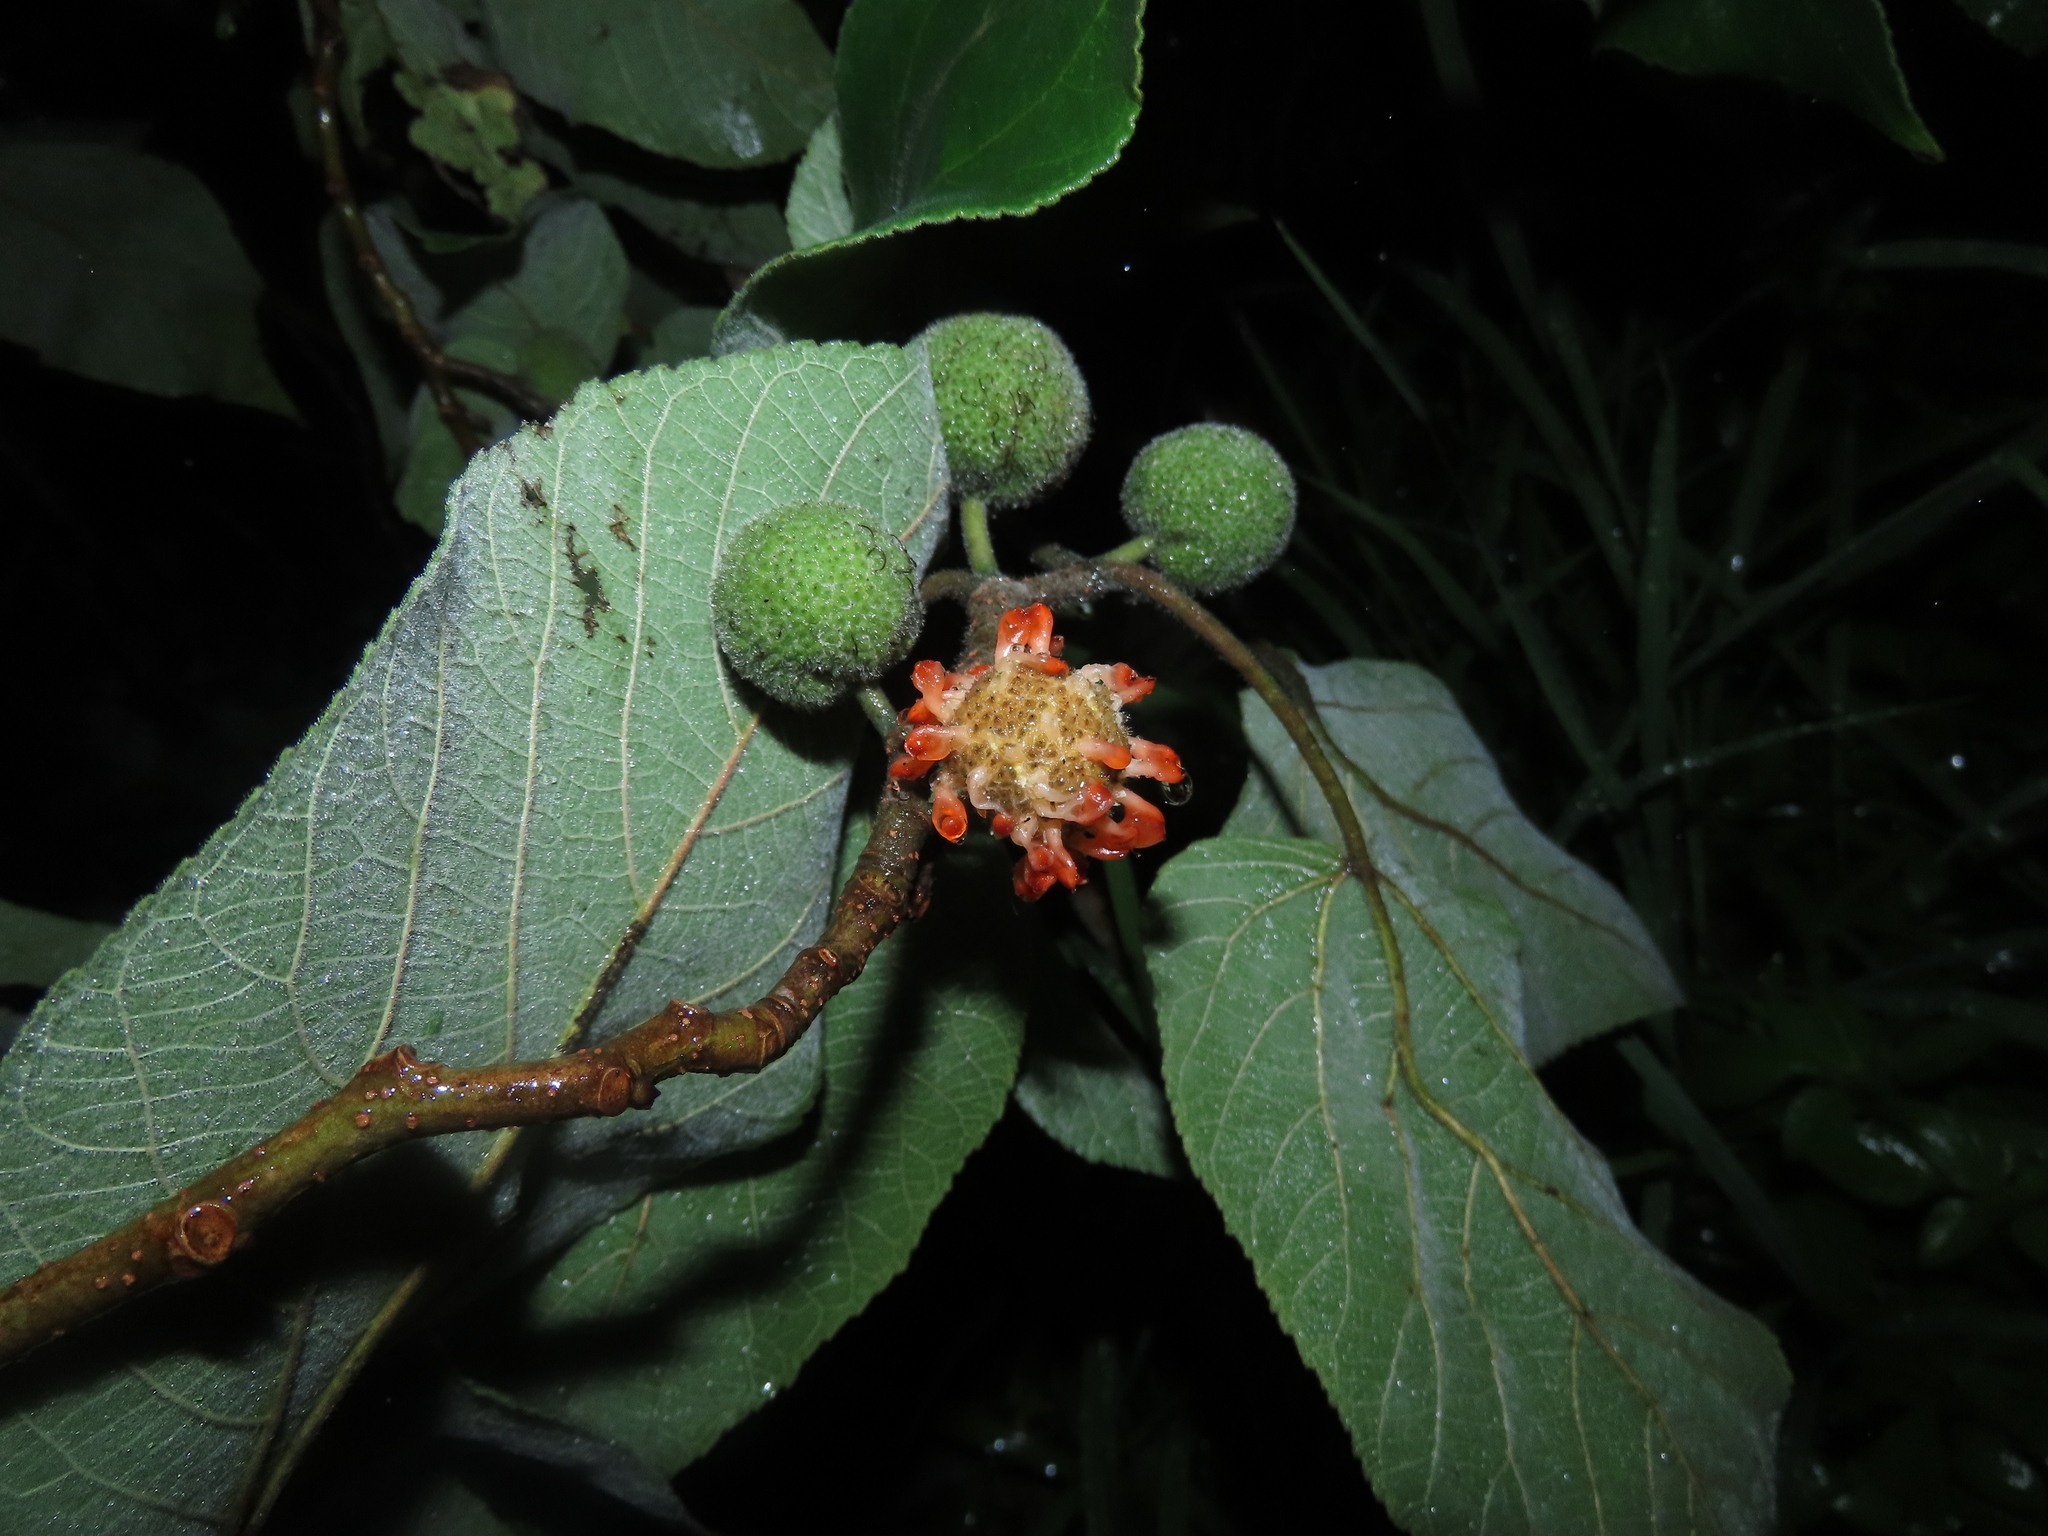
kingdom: Plantae
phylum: Tracheophyta
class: Magnoliopsida
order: Rosales
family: Moraceae
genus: Broussonetia
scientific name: Broussonetia papyrifera
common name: Paper mulberry
